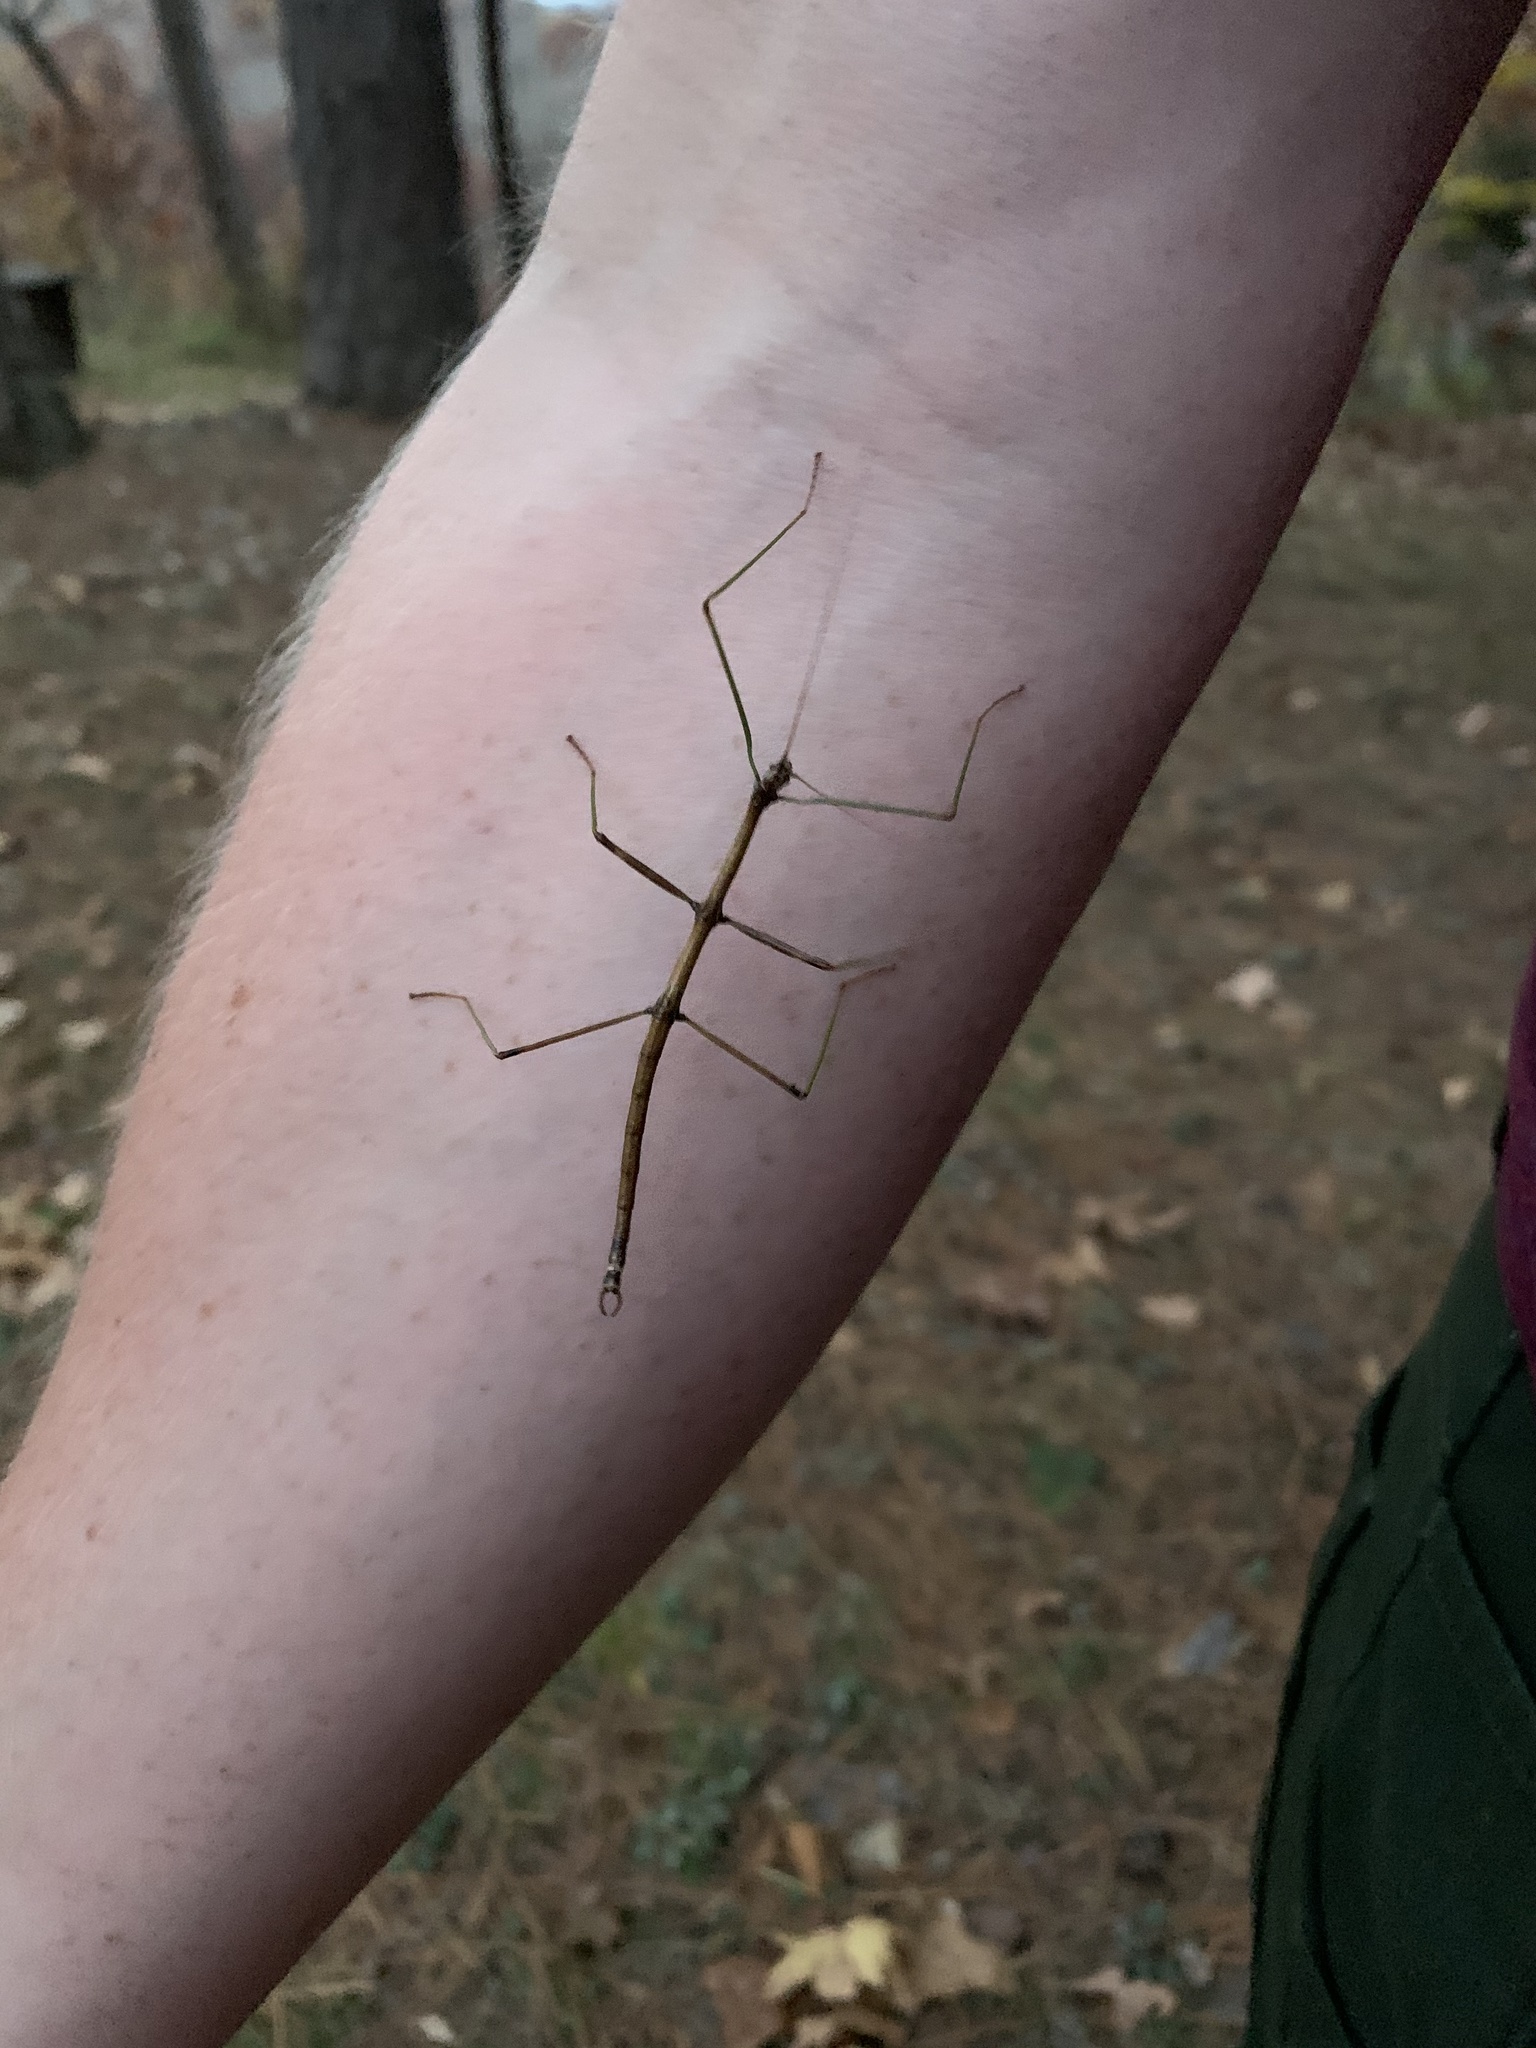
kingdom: Animalia
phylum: Arthropoda
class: Insecta
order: Phasmida
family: Diapheromeridae
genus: Diapheromera
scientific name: Diapheromera femorata
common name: Common american walkingstick
